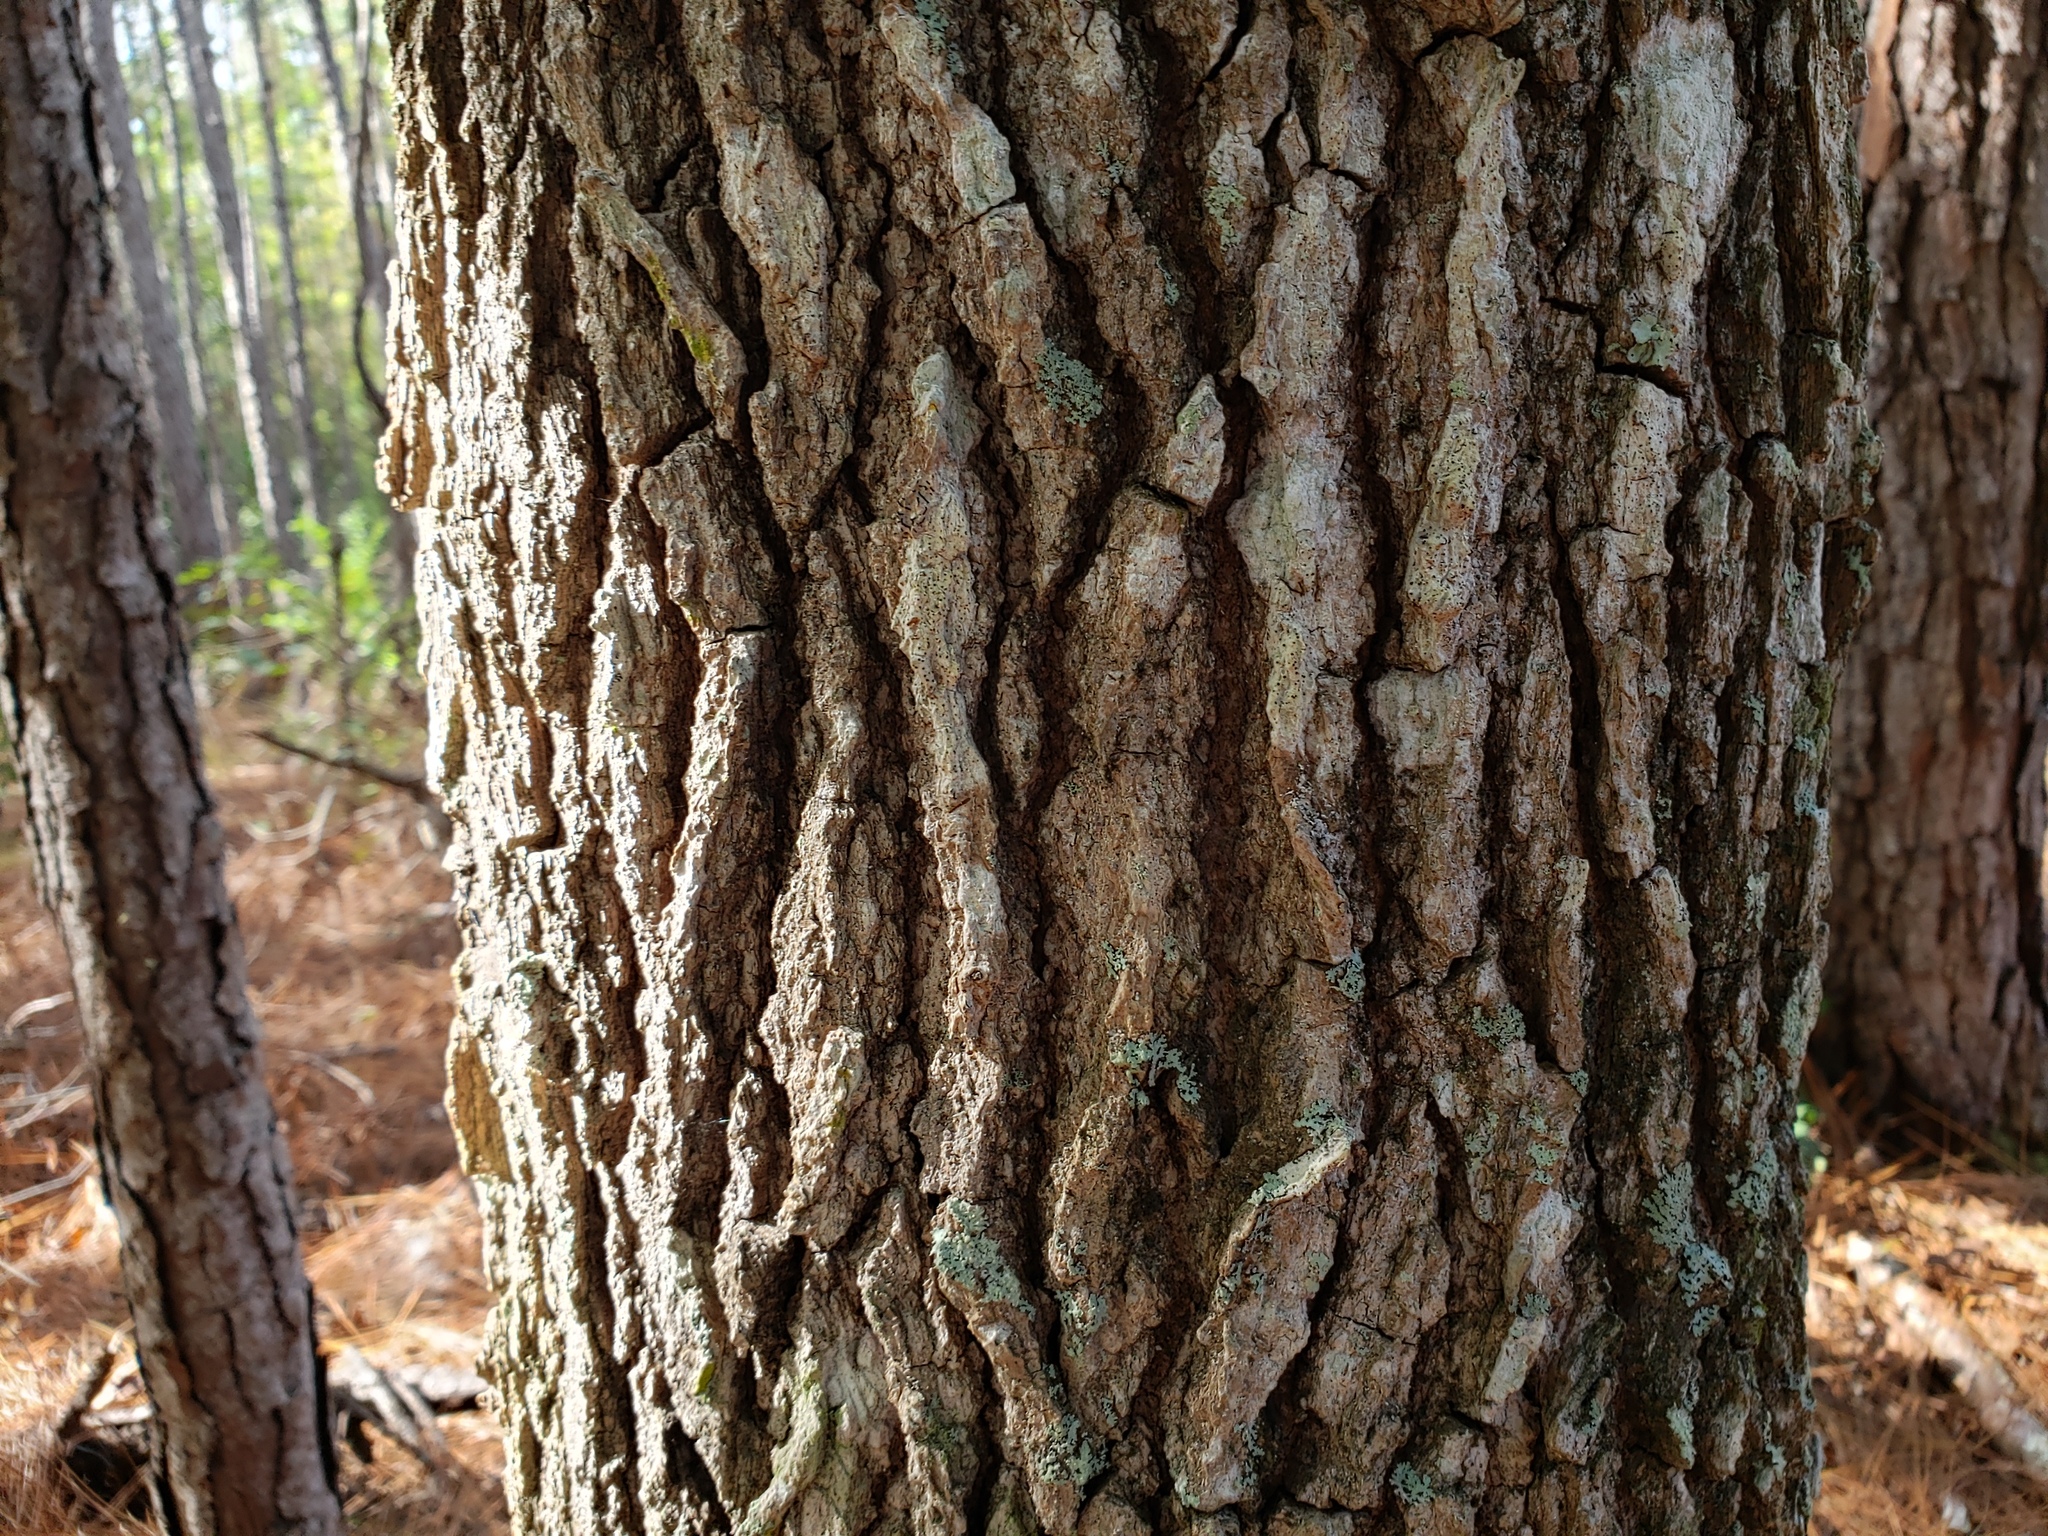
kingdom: Plantae
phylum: Tracheophyta
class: Magnoliopsida
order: Saxifragales
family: Altingiaceae
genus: Liquidambar
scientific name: Liquidambar styraciflua
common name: Sweet gum
